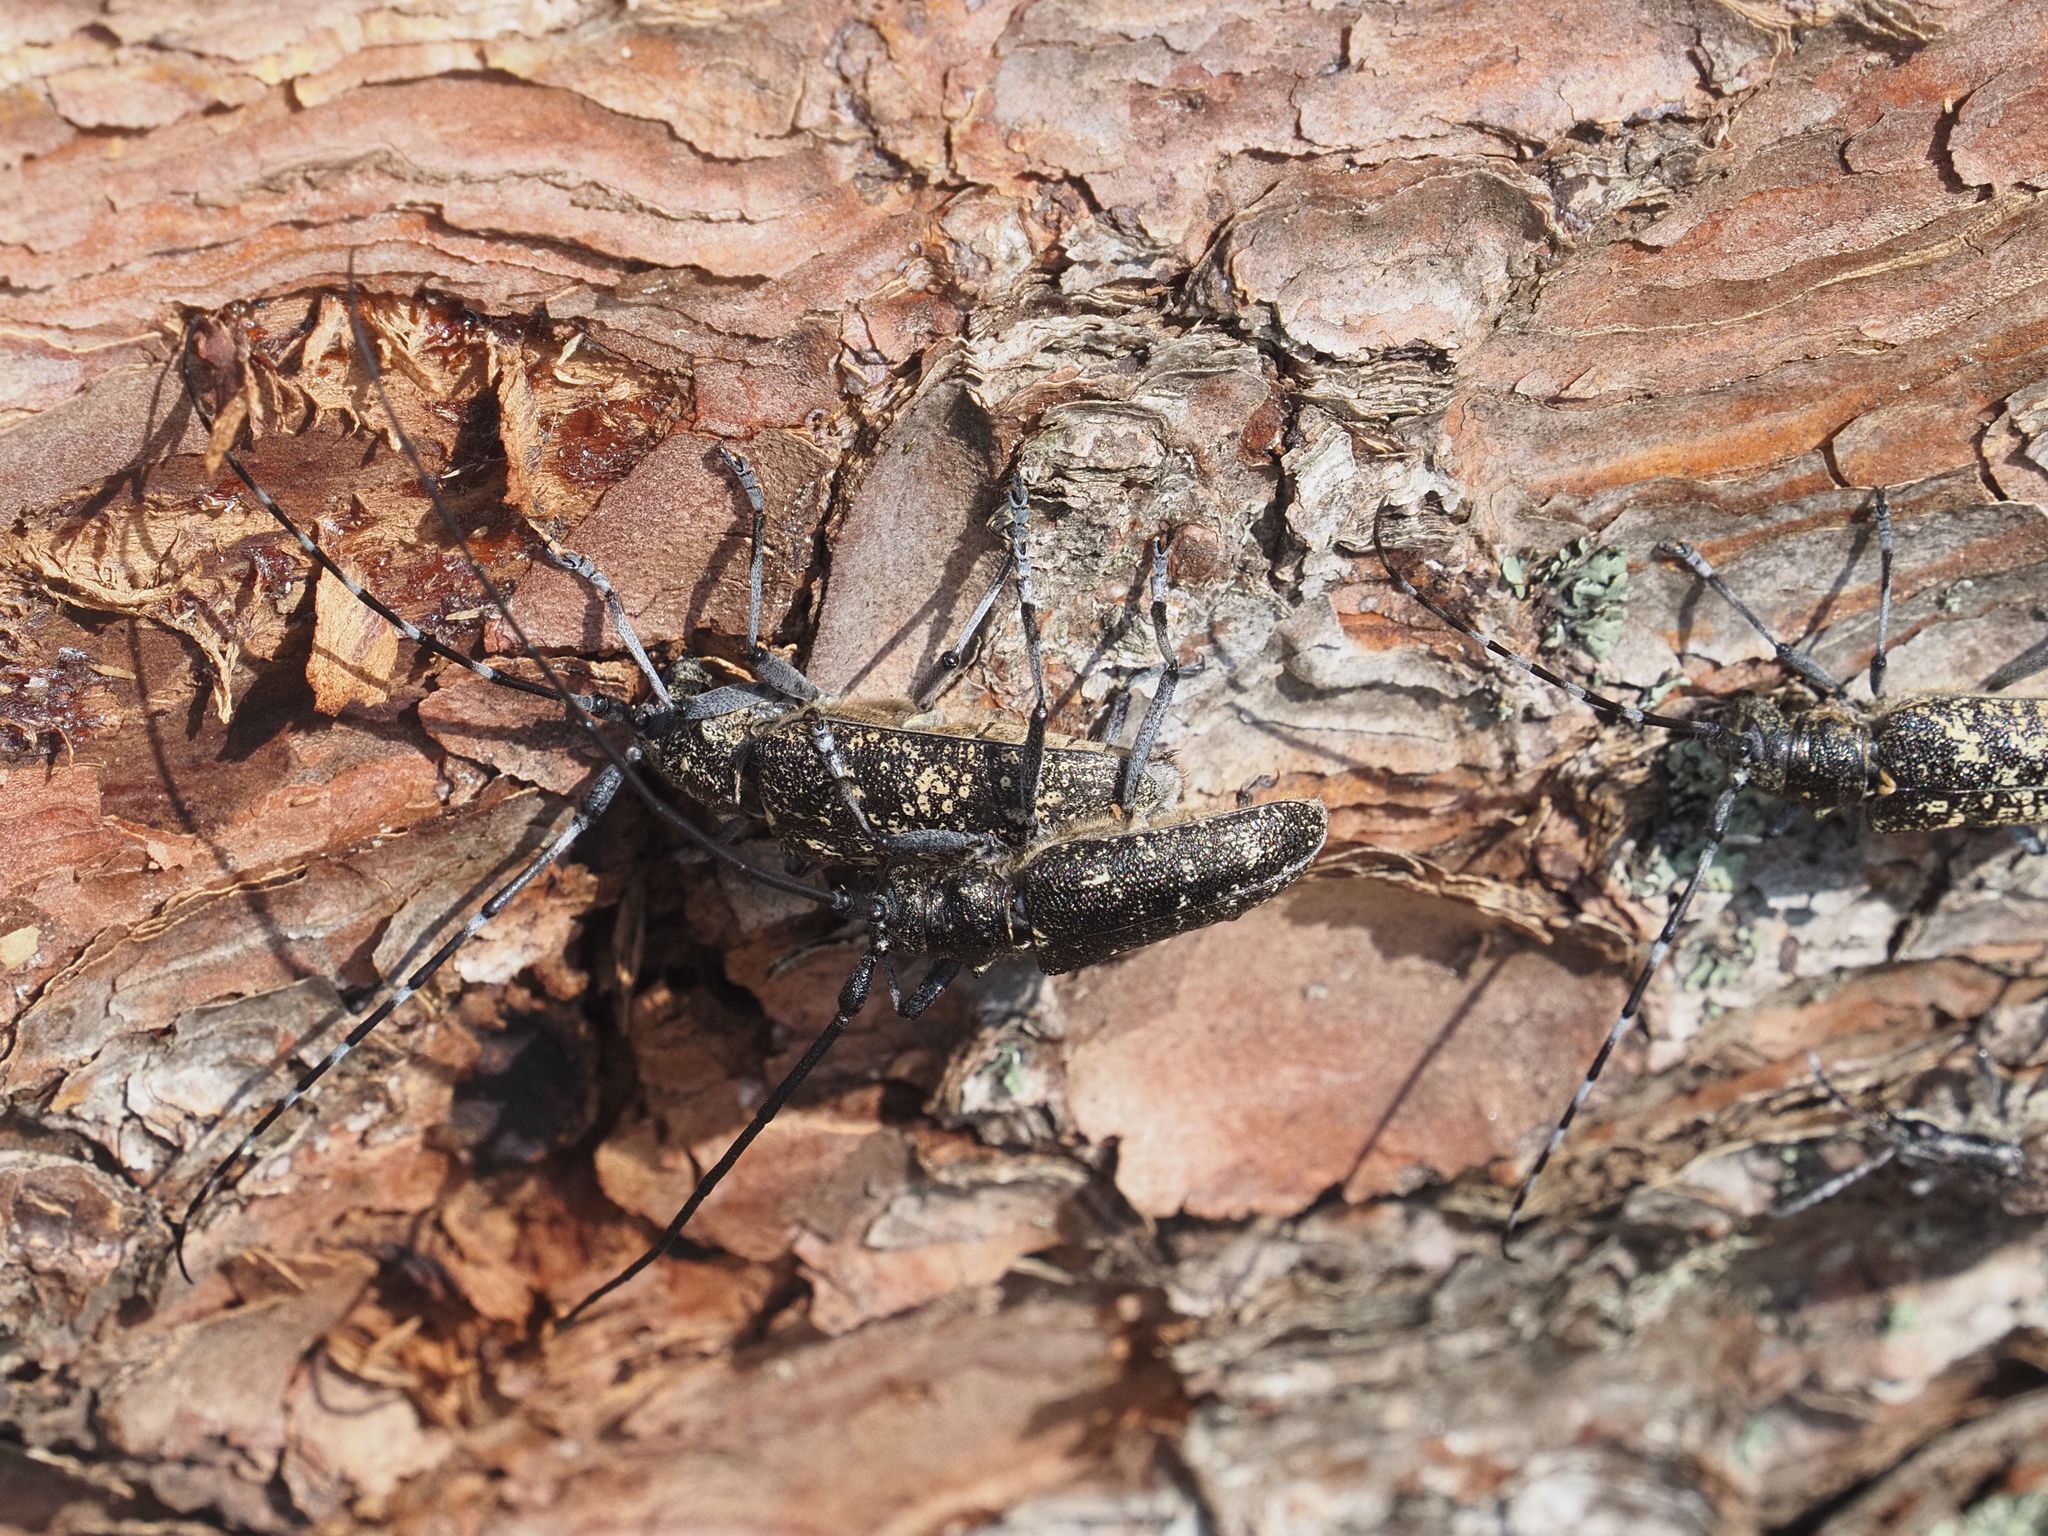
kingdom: Animalia
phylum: Arthropoda
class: Insecta
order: Coleoptera
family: Cerambycidae
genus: Monochamus
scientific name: Monochamus sutor
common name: Pine sawyer
